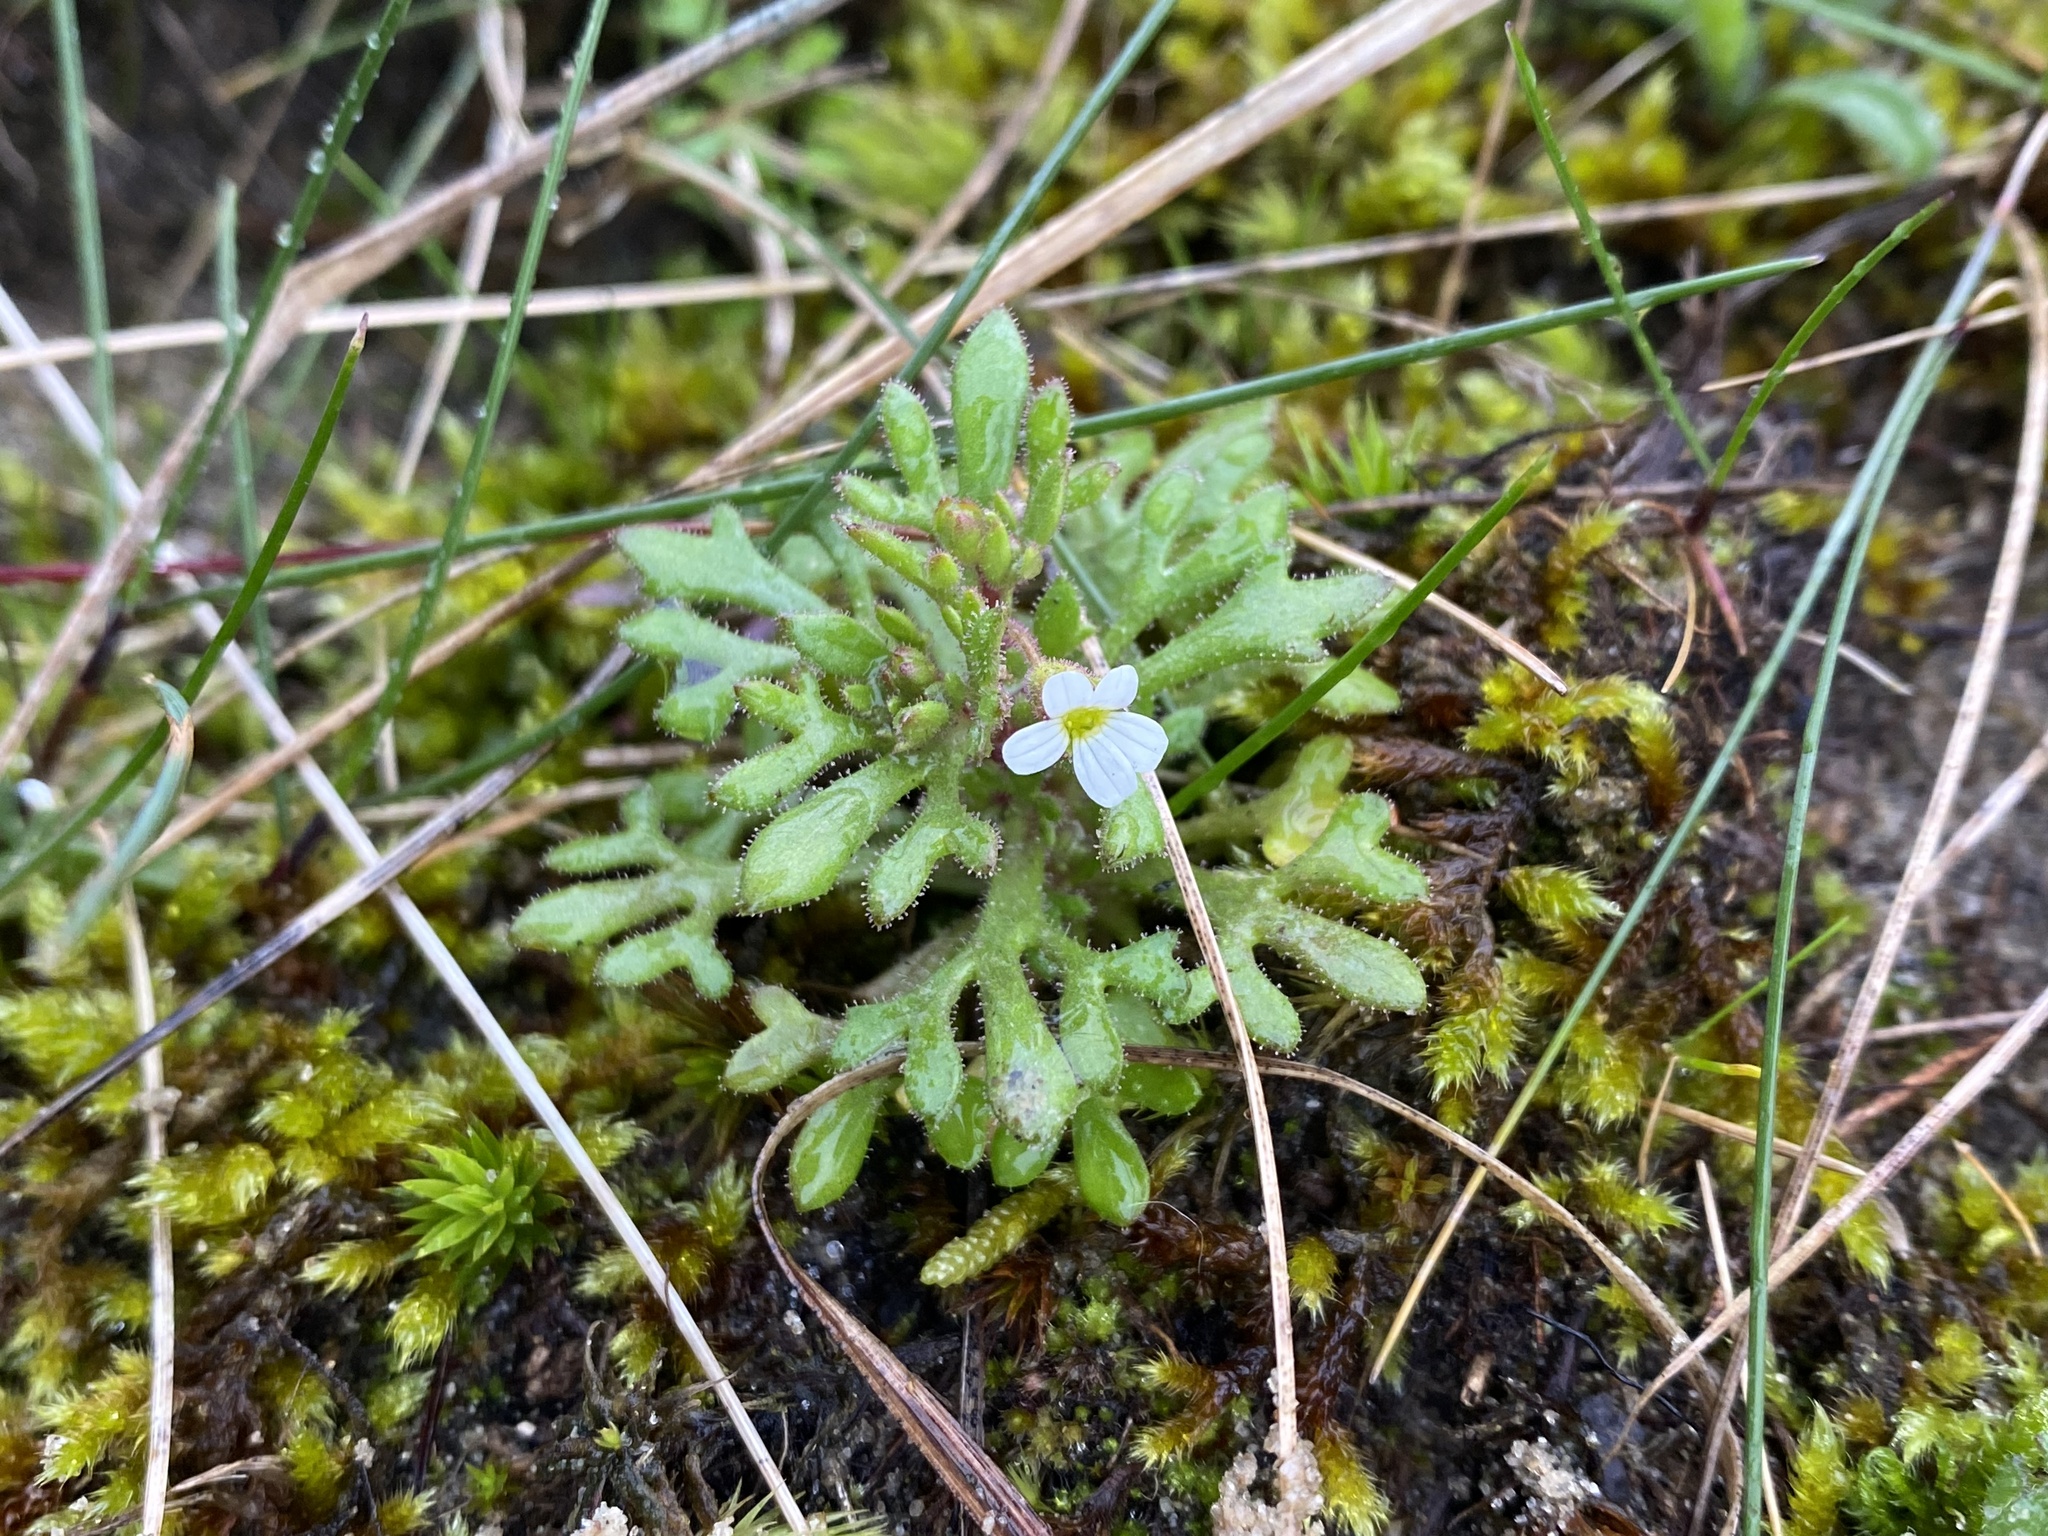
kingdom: Plantae
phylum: Tracheophyta
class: Magnoliopsida
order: Saxifragales
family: Saxifragaceae
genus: Saxifraga
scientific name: Saxifraga tridactylites
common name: Rue-leaved saxifrage
